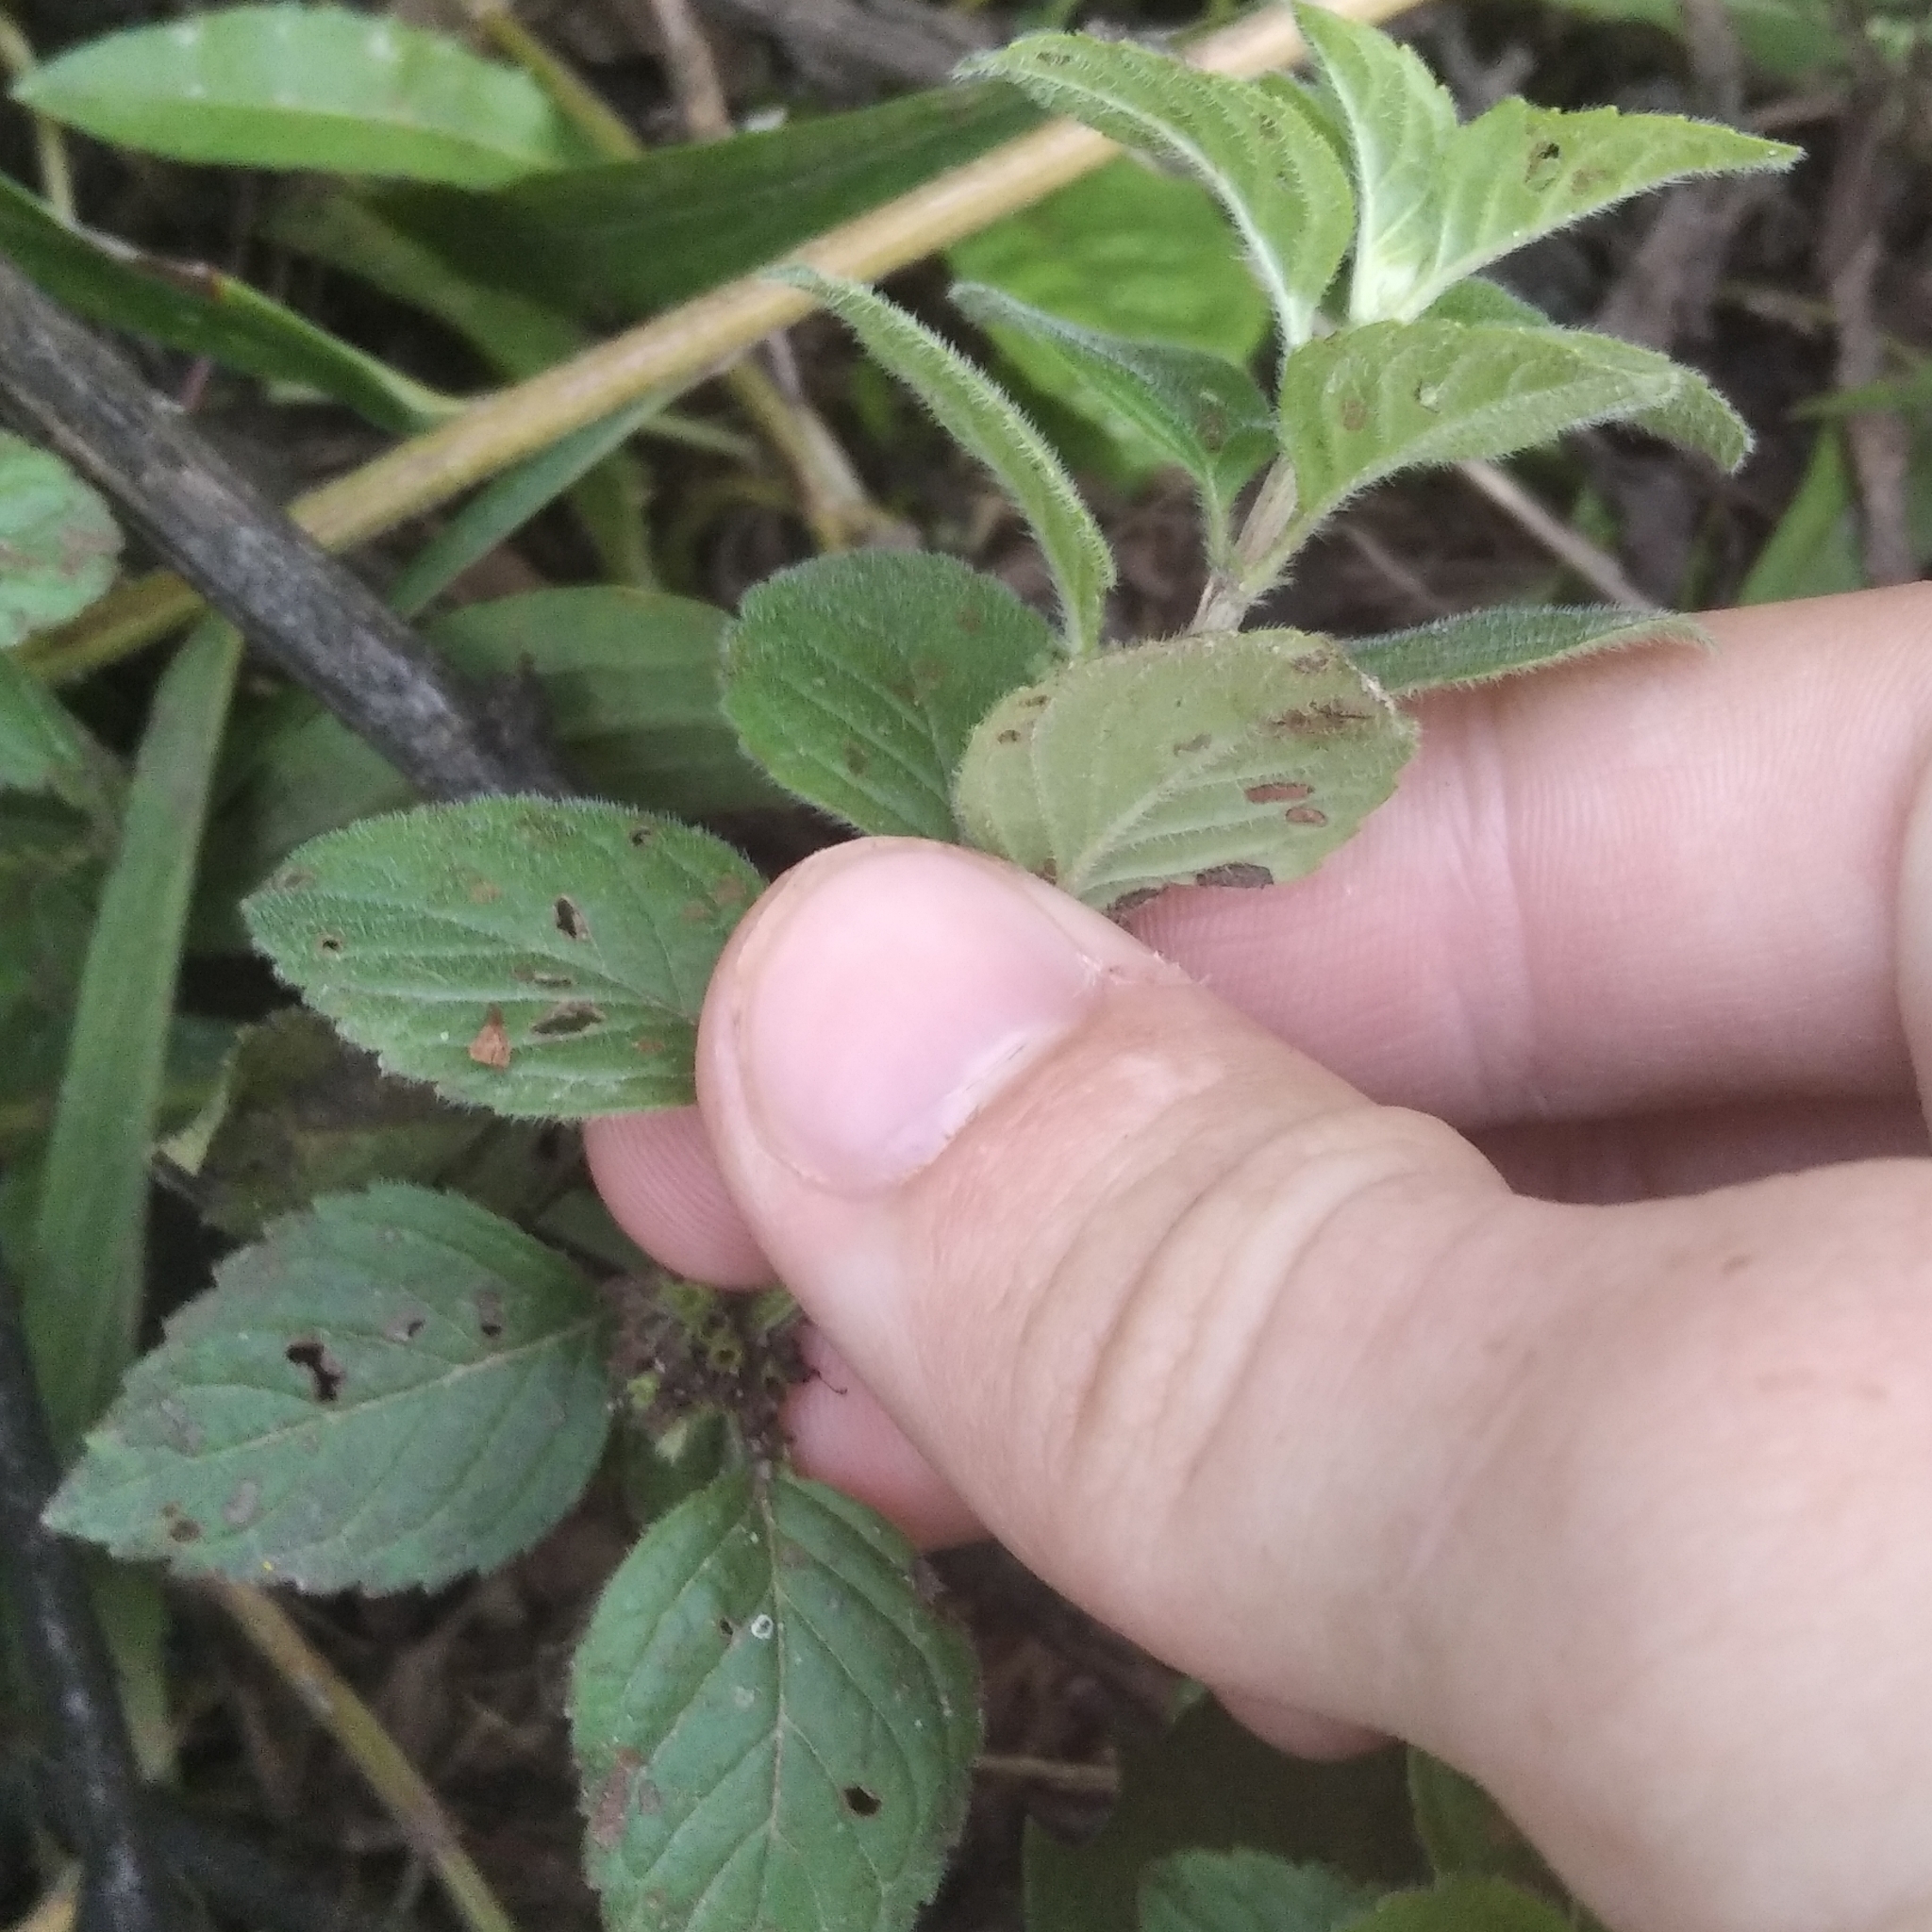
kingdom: Plantae
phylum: Tracheophyta
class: Magnoliopsida
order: Lamiales
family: Lamiaceae
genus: Mentha
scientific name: Mentha arvensis
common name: Corn mint
